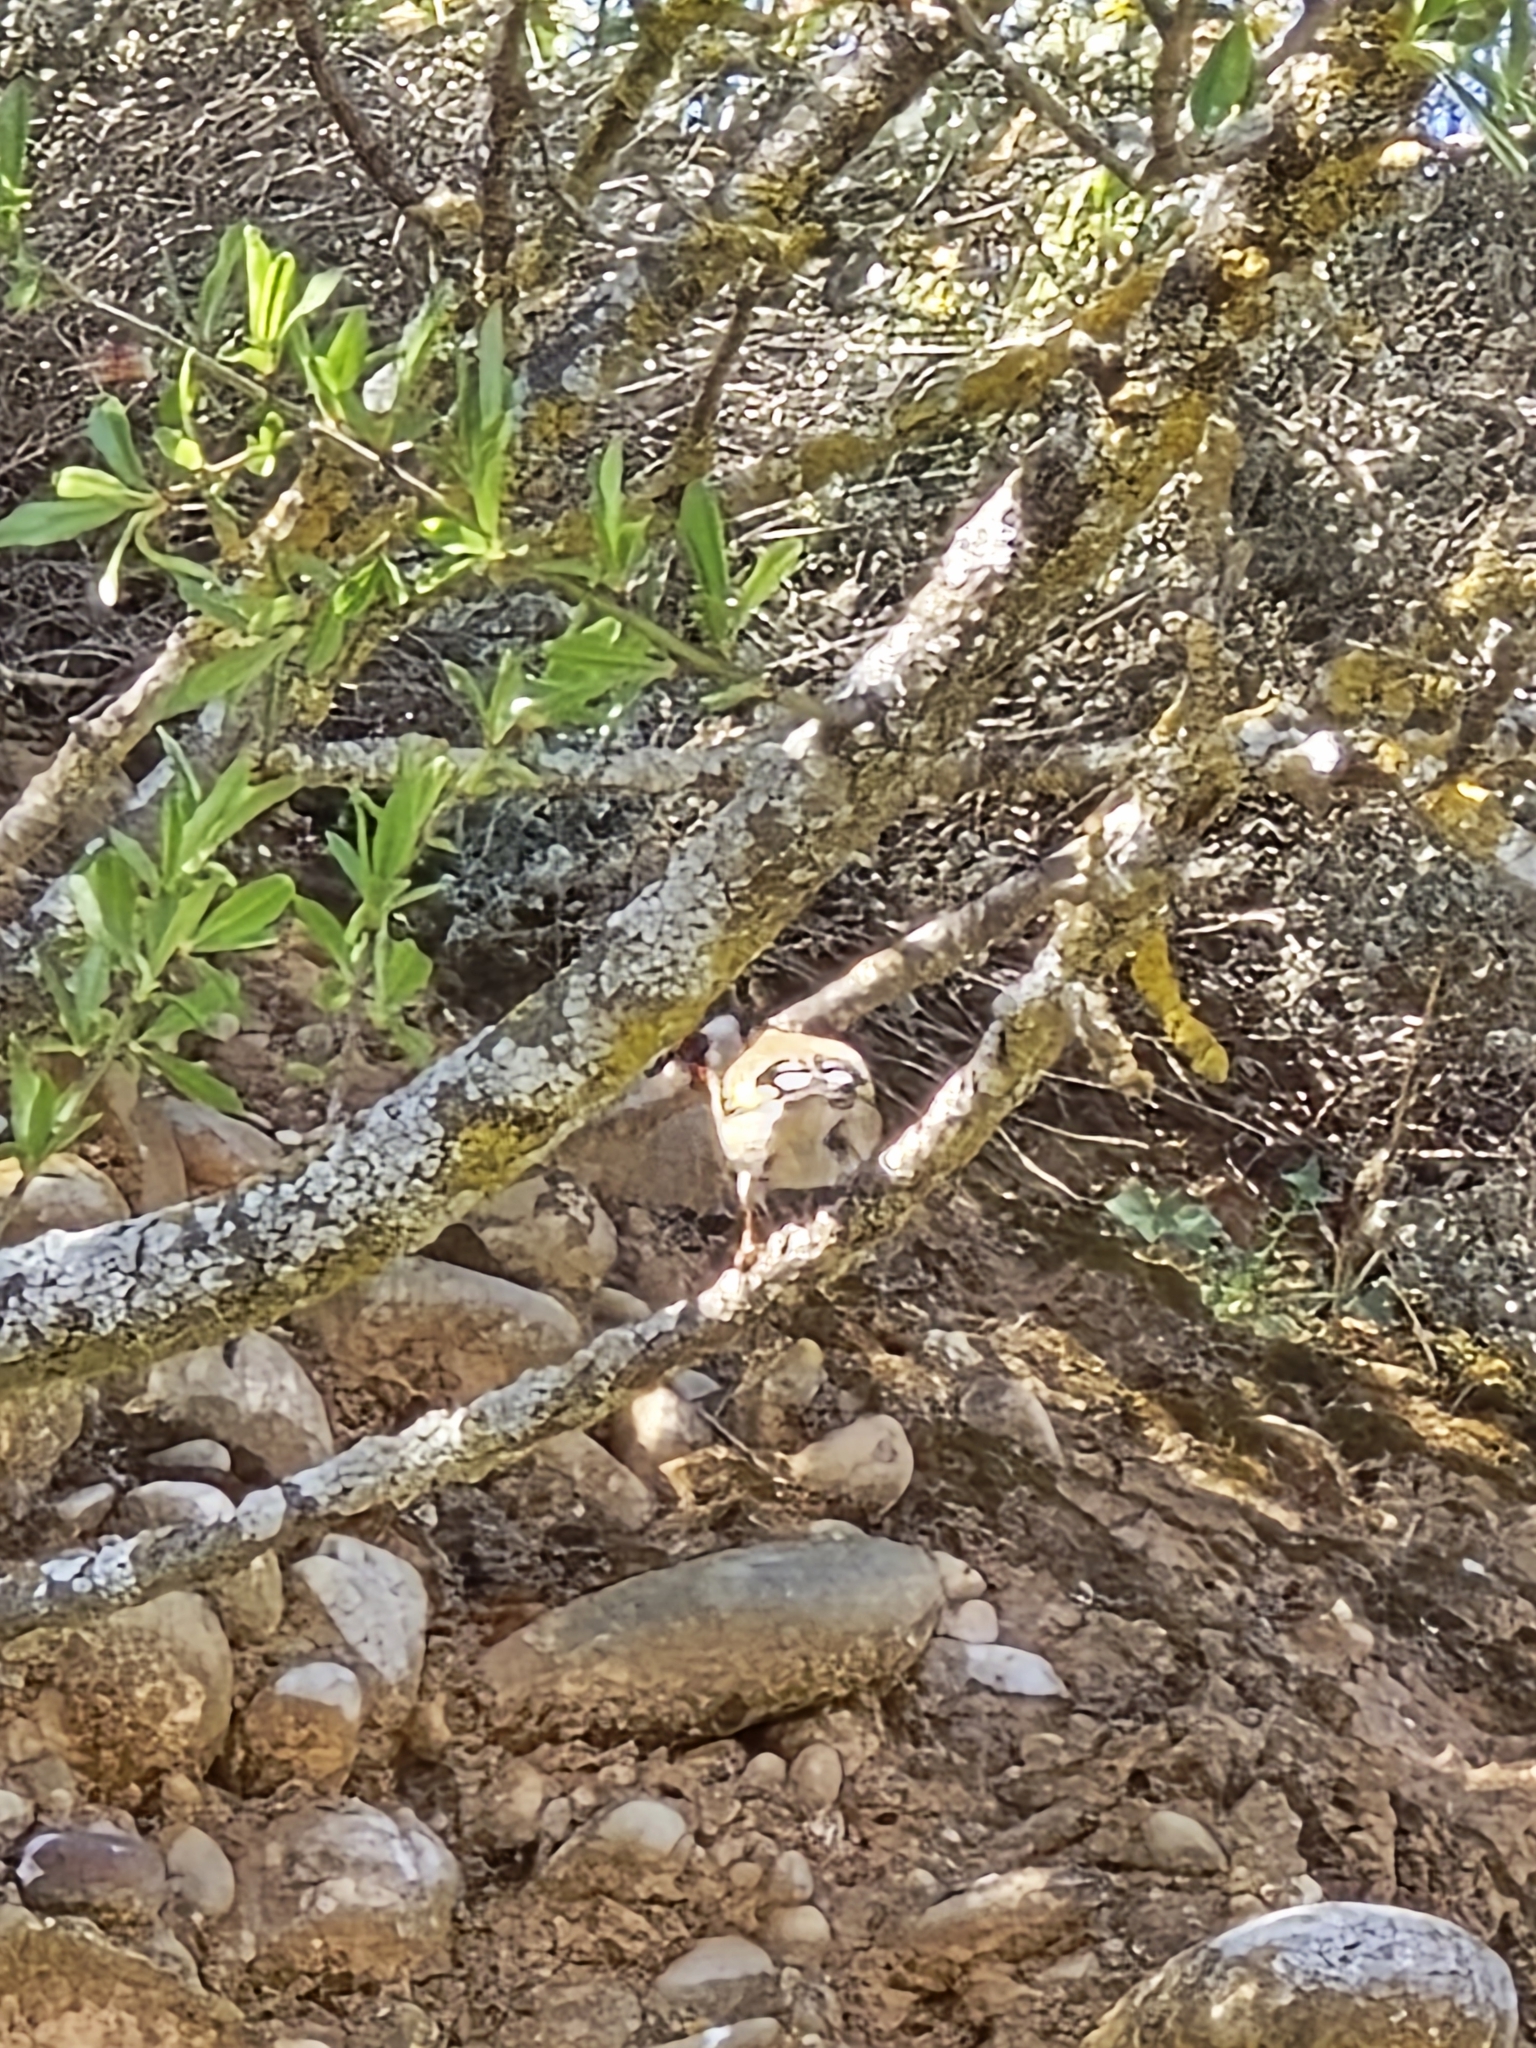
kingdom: Animalia
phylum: Chordata
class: Aves
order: Passeriformes
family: Fringillidae
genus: Carduelis
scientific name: Carduelis carduelis
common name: European goldfinch
